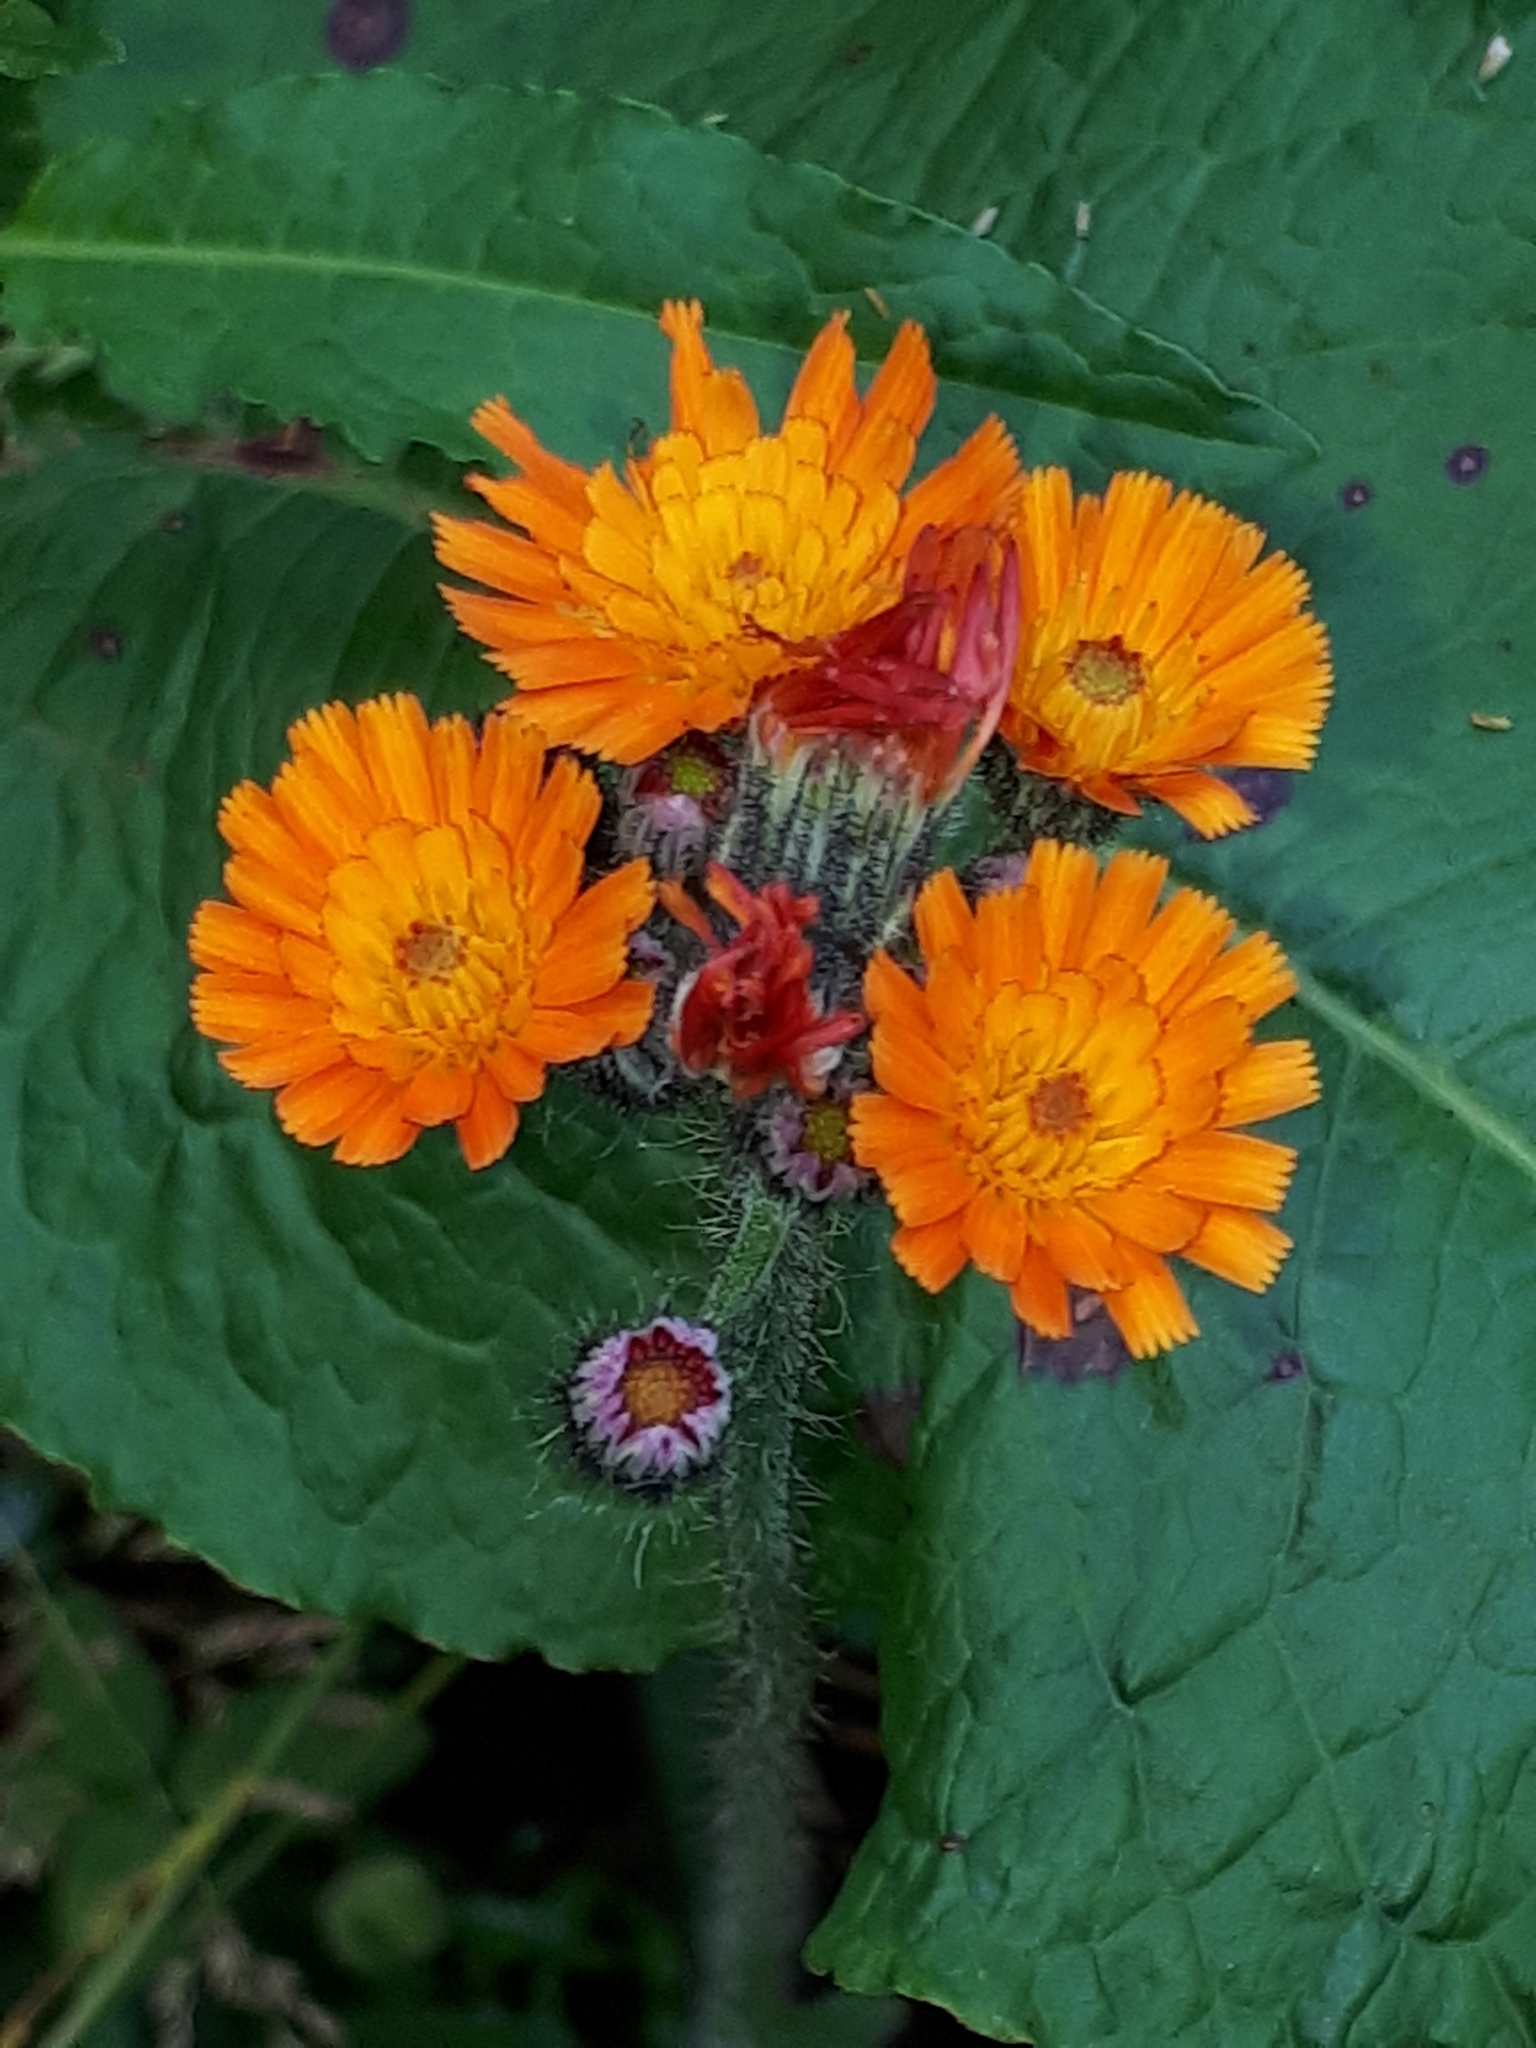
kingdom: Plantae
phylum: Tracheophyta
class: Magnoliopsida
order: Asterales
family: Asteraceae
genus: Pilosella
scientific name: Pilosella aurantiaca
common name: Fox-and-cubs
